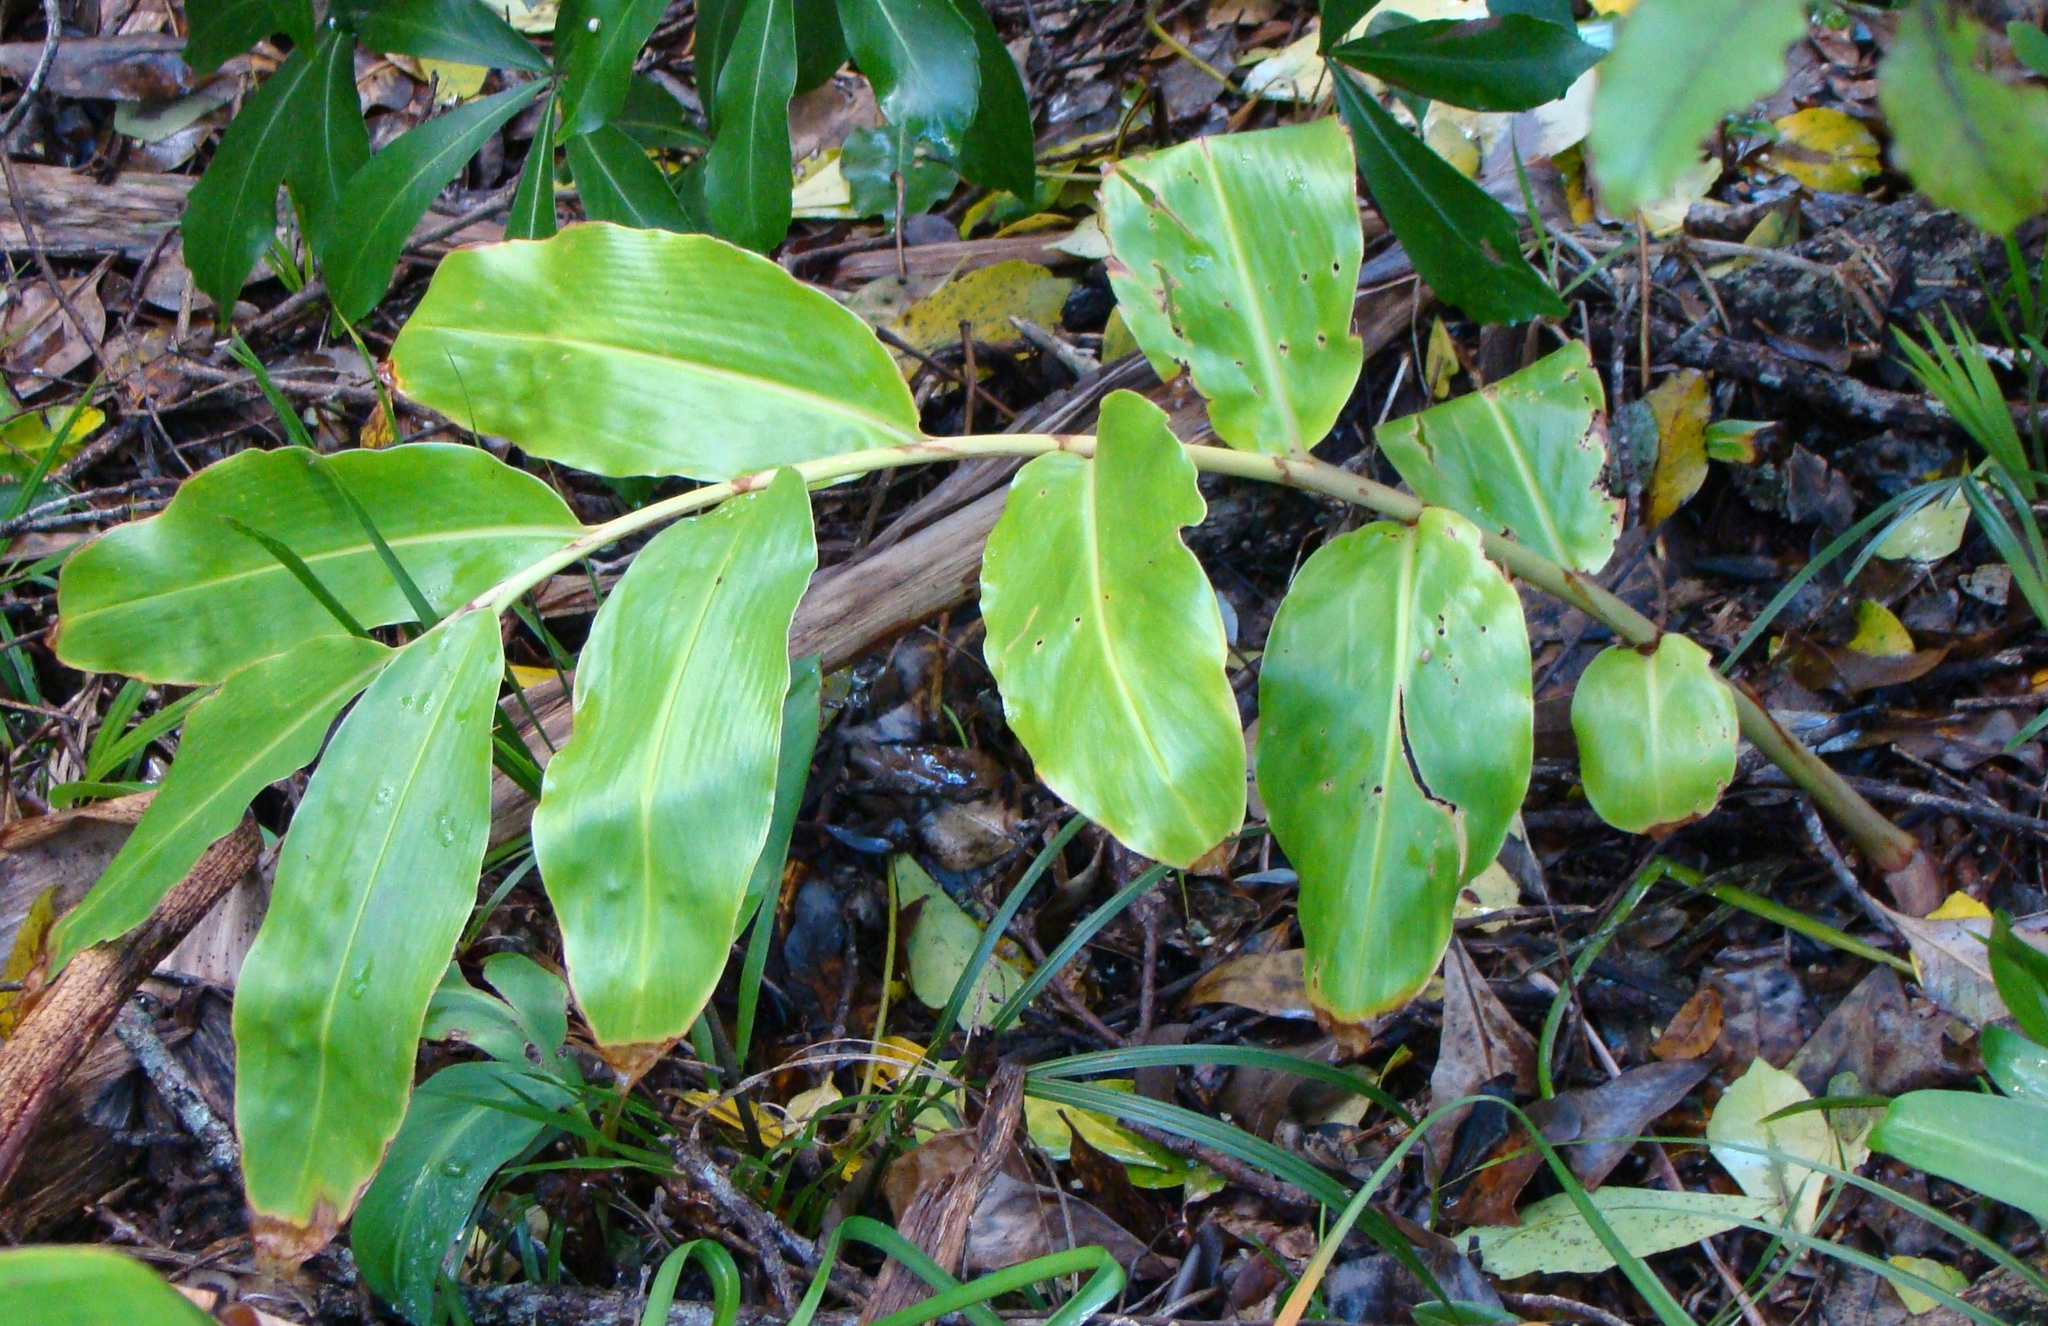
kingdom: Plantae
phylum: Tracheophyta
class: Liliopsida
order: Zingiberales
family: Zingiberaceae
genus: Hedychium
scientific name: Hedychium gardnerianum
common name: Himalayan ginger
